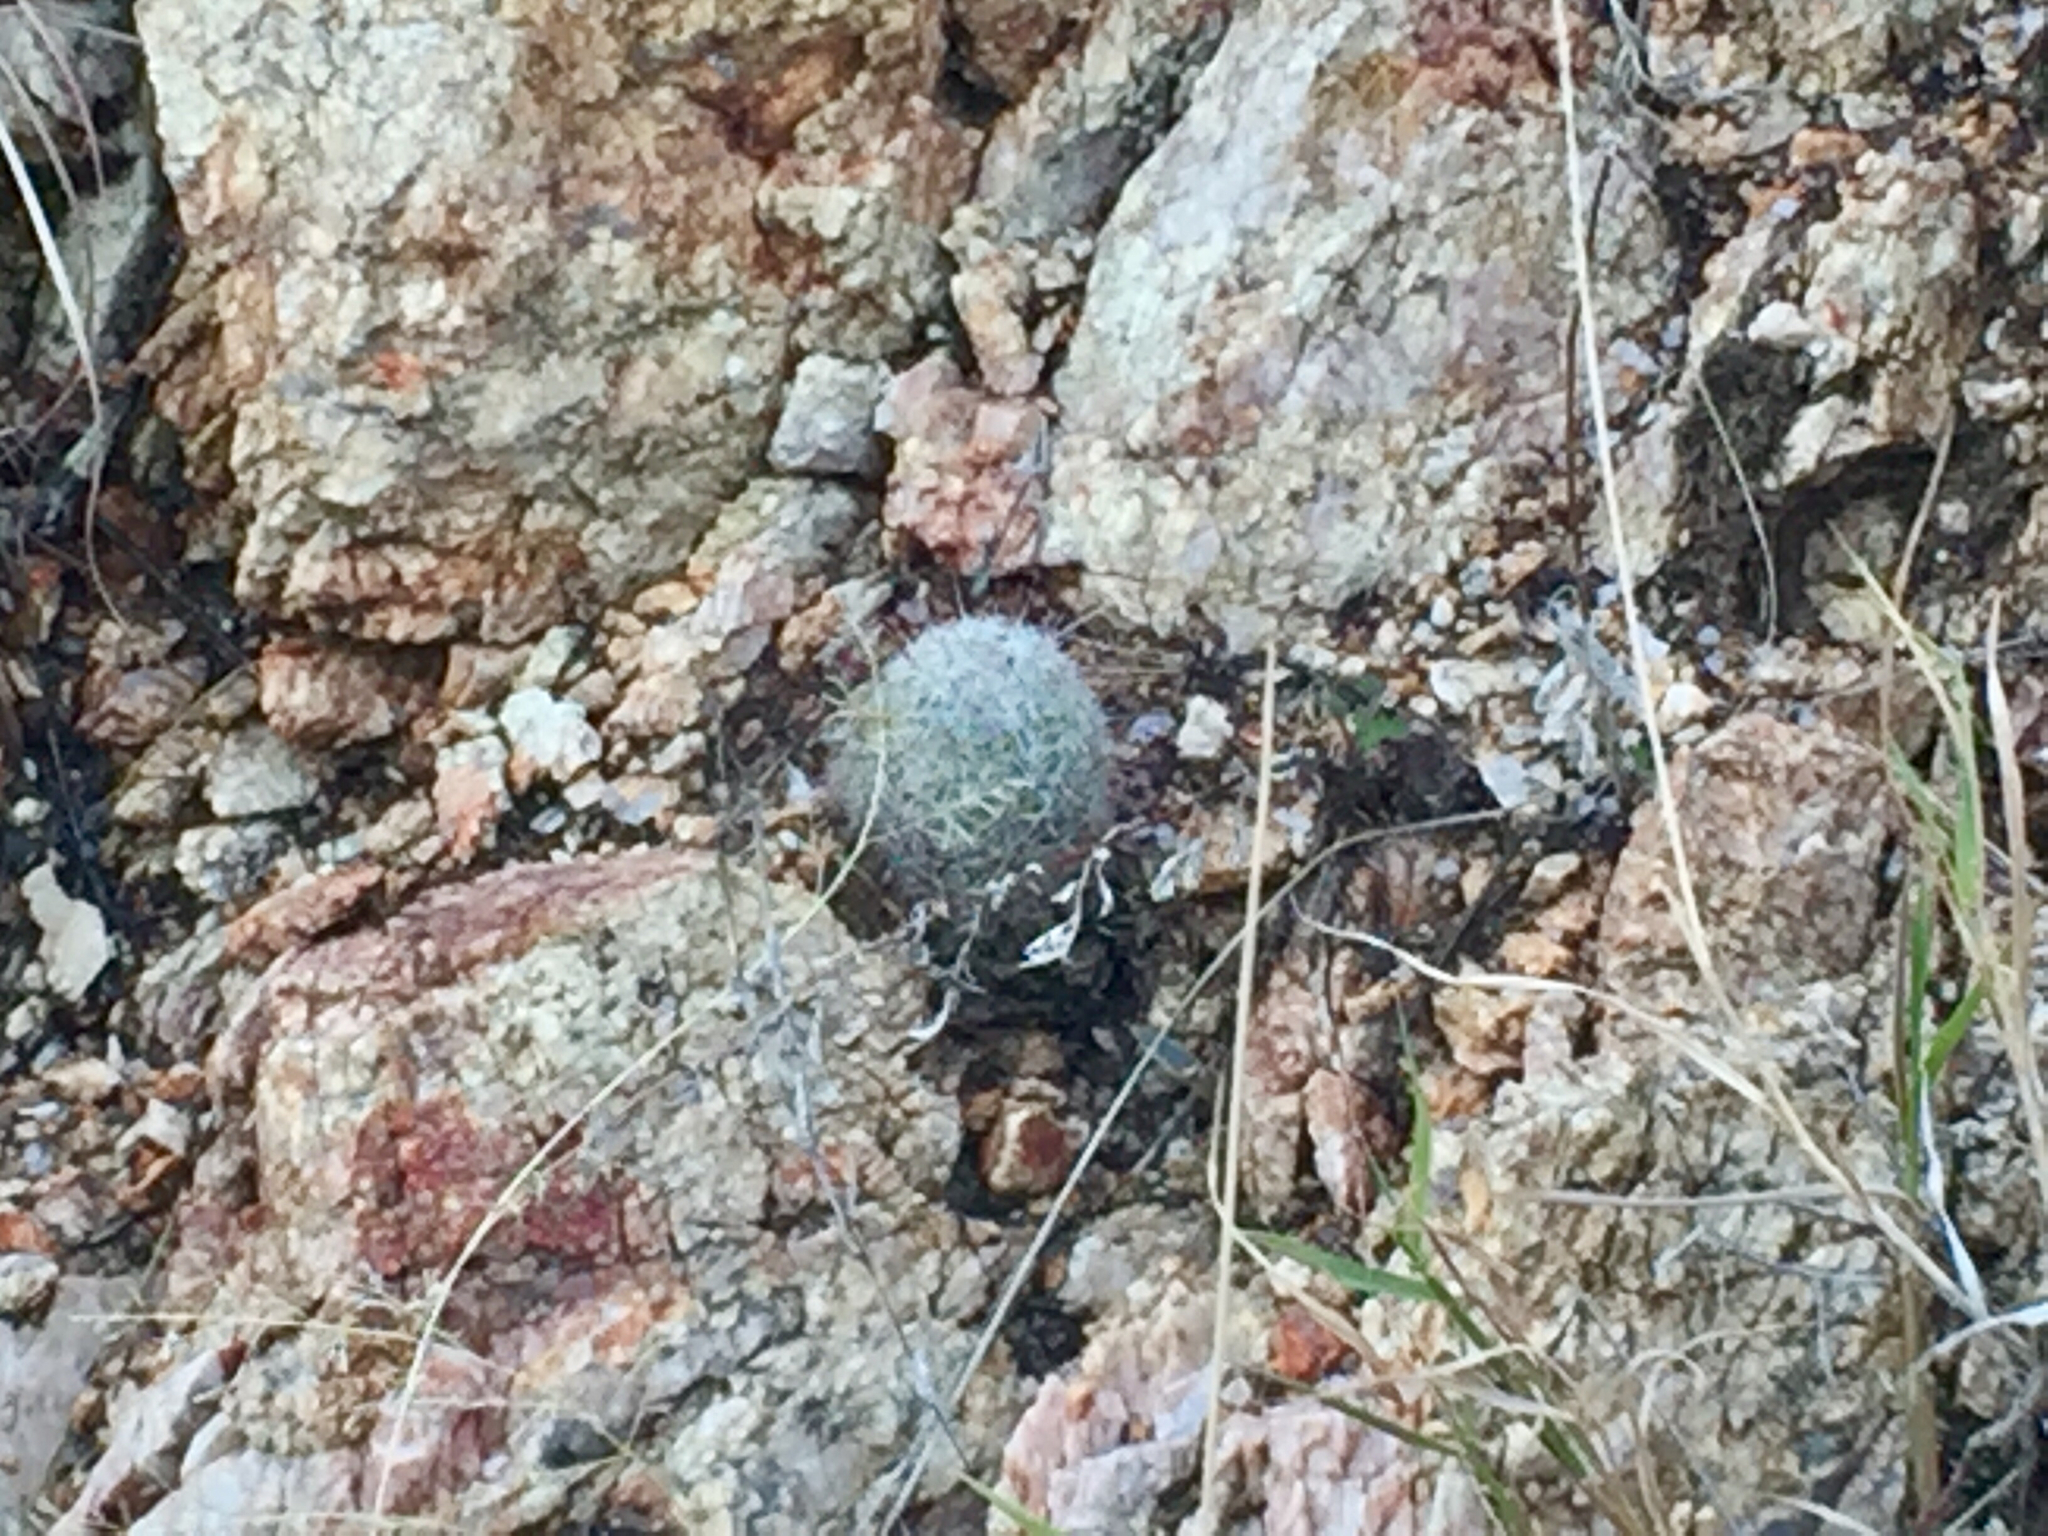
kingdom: Plantae
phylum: Tracheophyta
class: Magnoliopsida
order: Caryophyllales
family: Cactaceae
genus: Cochemiea
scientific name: Cochemiea grahamii
